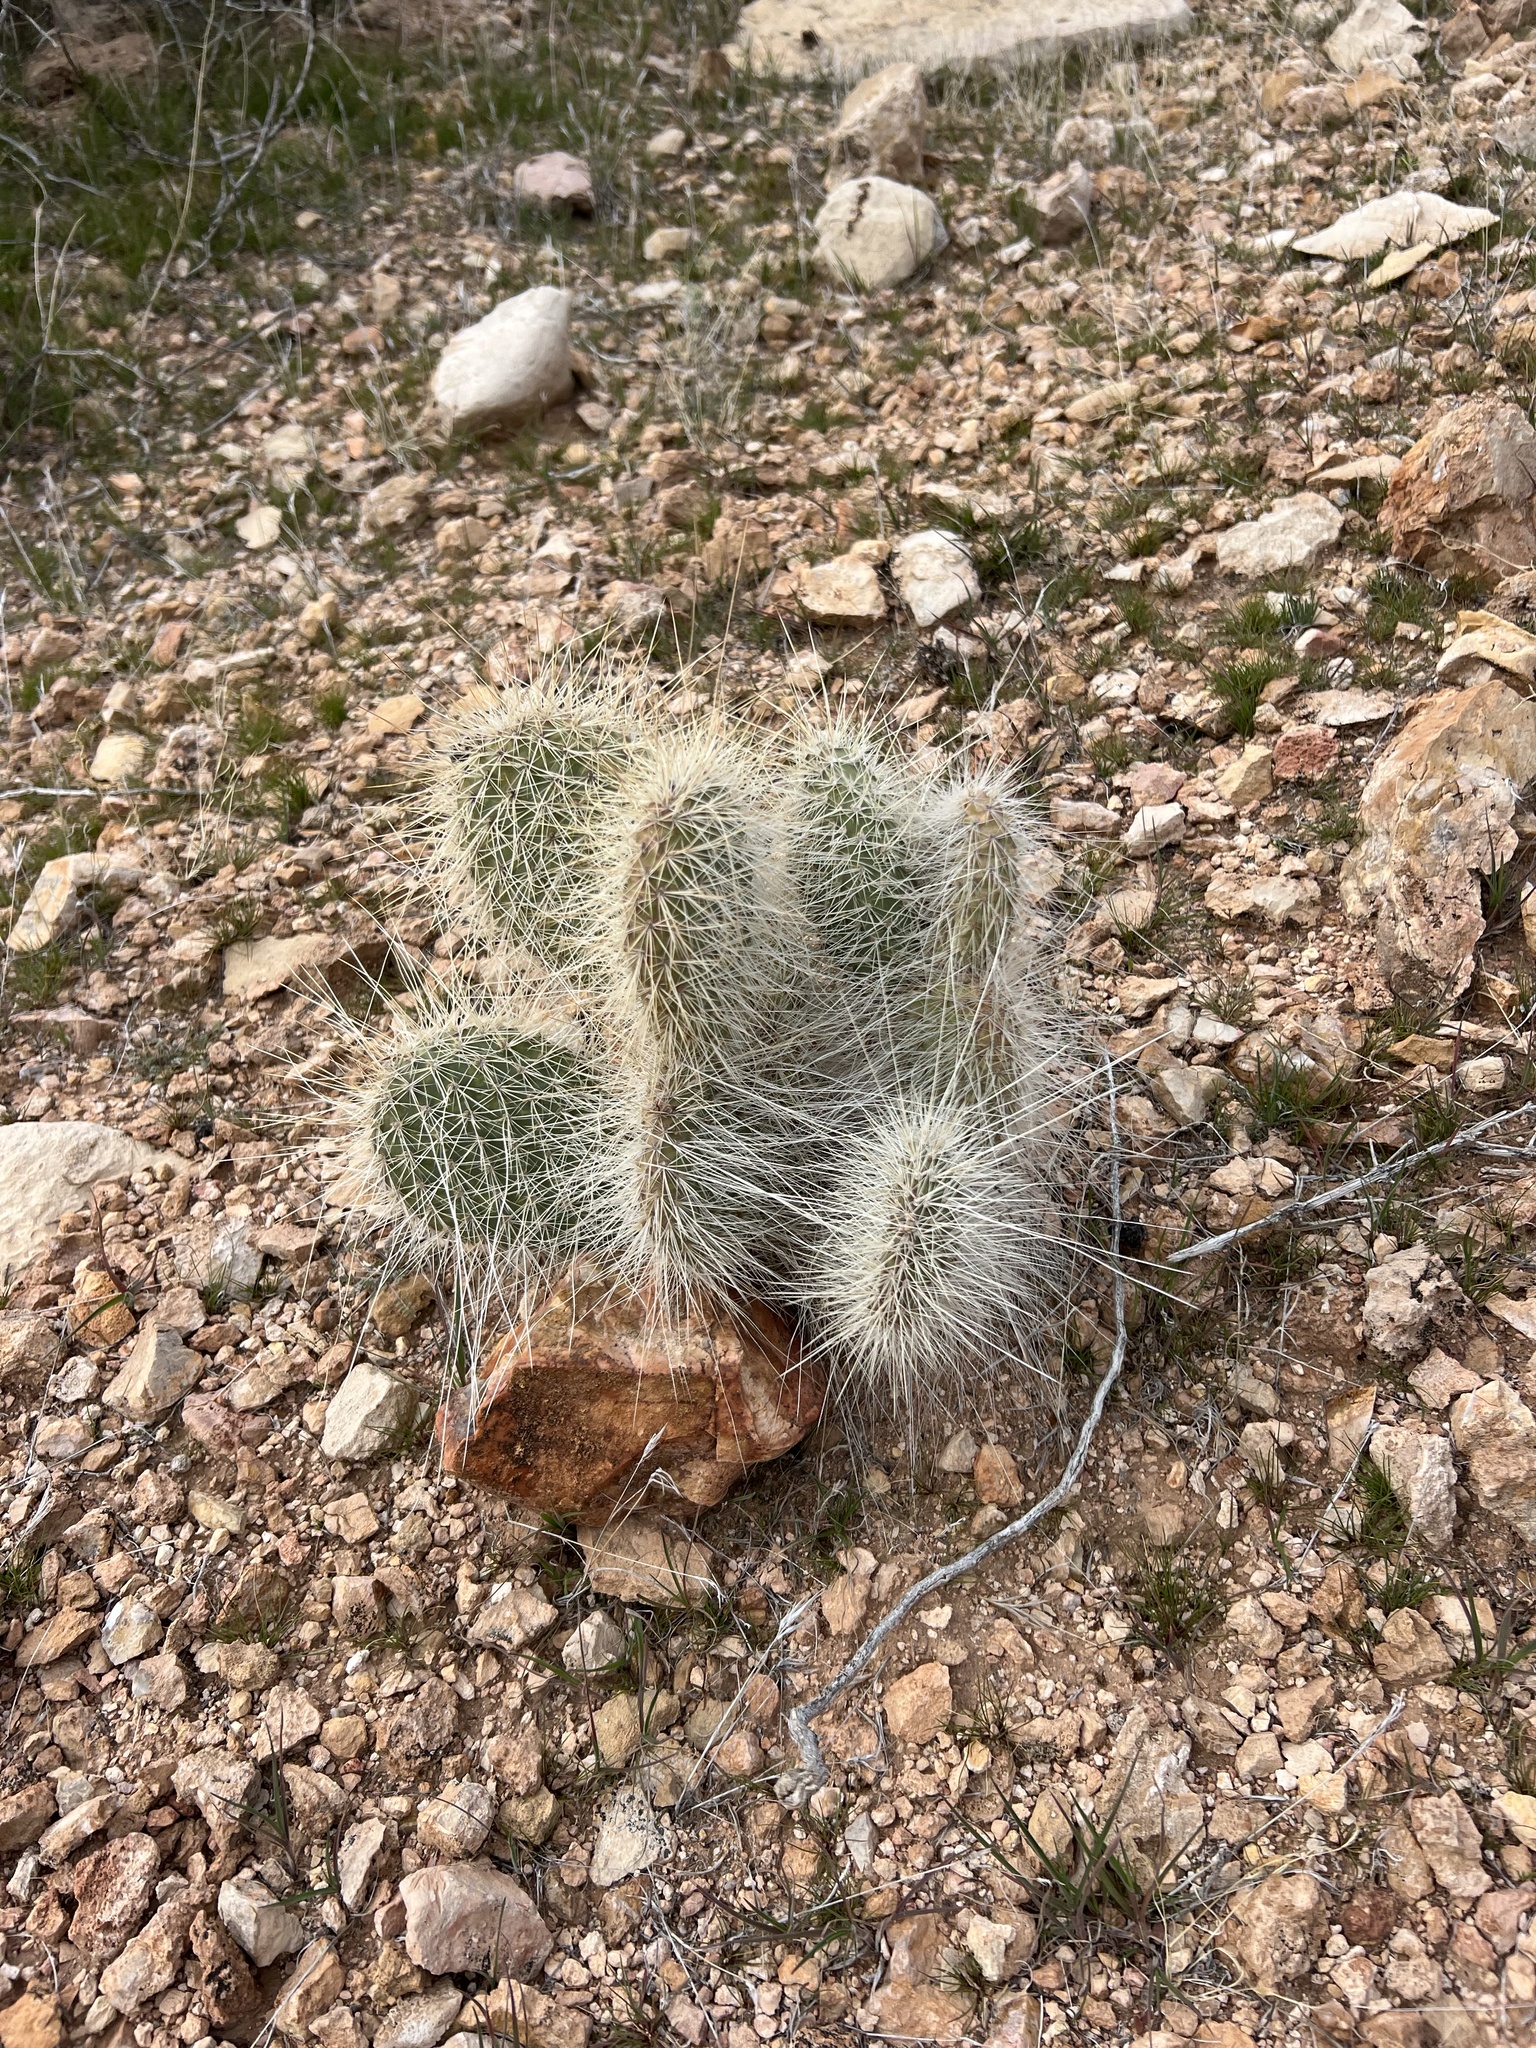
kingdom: Plantae
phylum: Tracheophyta
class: Magnoliopsida
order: Caryophyllales
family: Cactaceae
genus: Opuntia
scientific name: Opuntia polyacantha
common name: Plains prickly-pear
